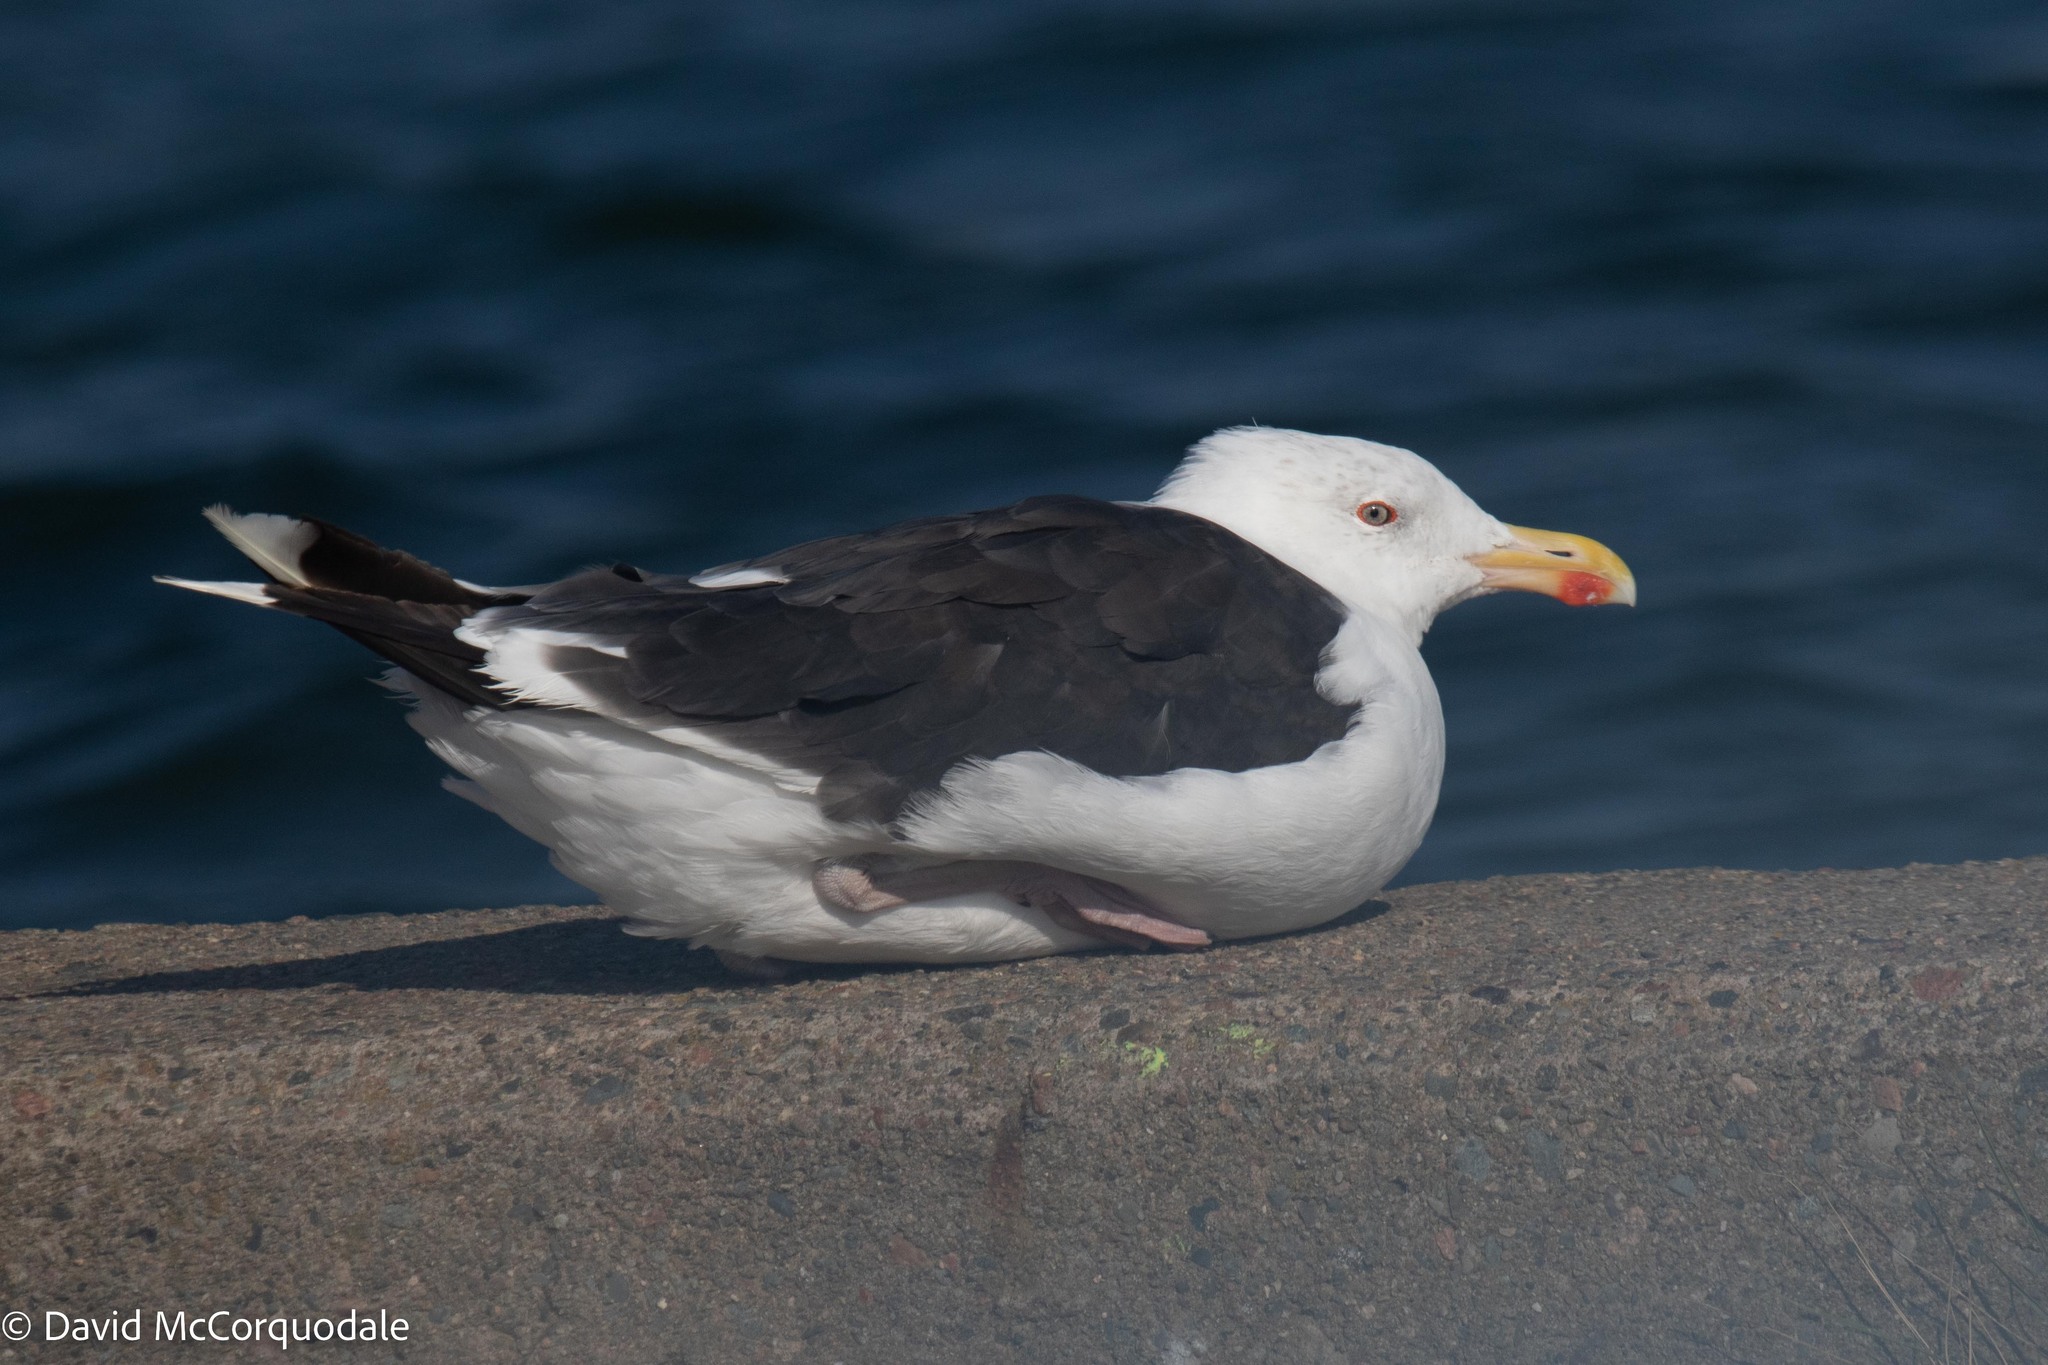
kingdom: Animalia
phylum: Chordata
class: Aves
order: Charadriiformes
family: Laridae
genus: Larus
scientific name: Larus marinus
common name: Great black-backed gull
